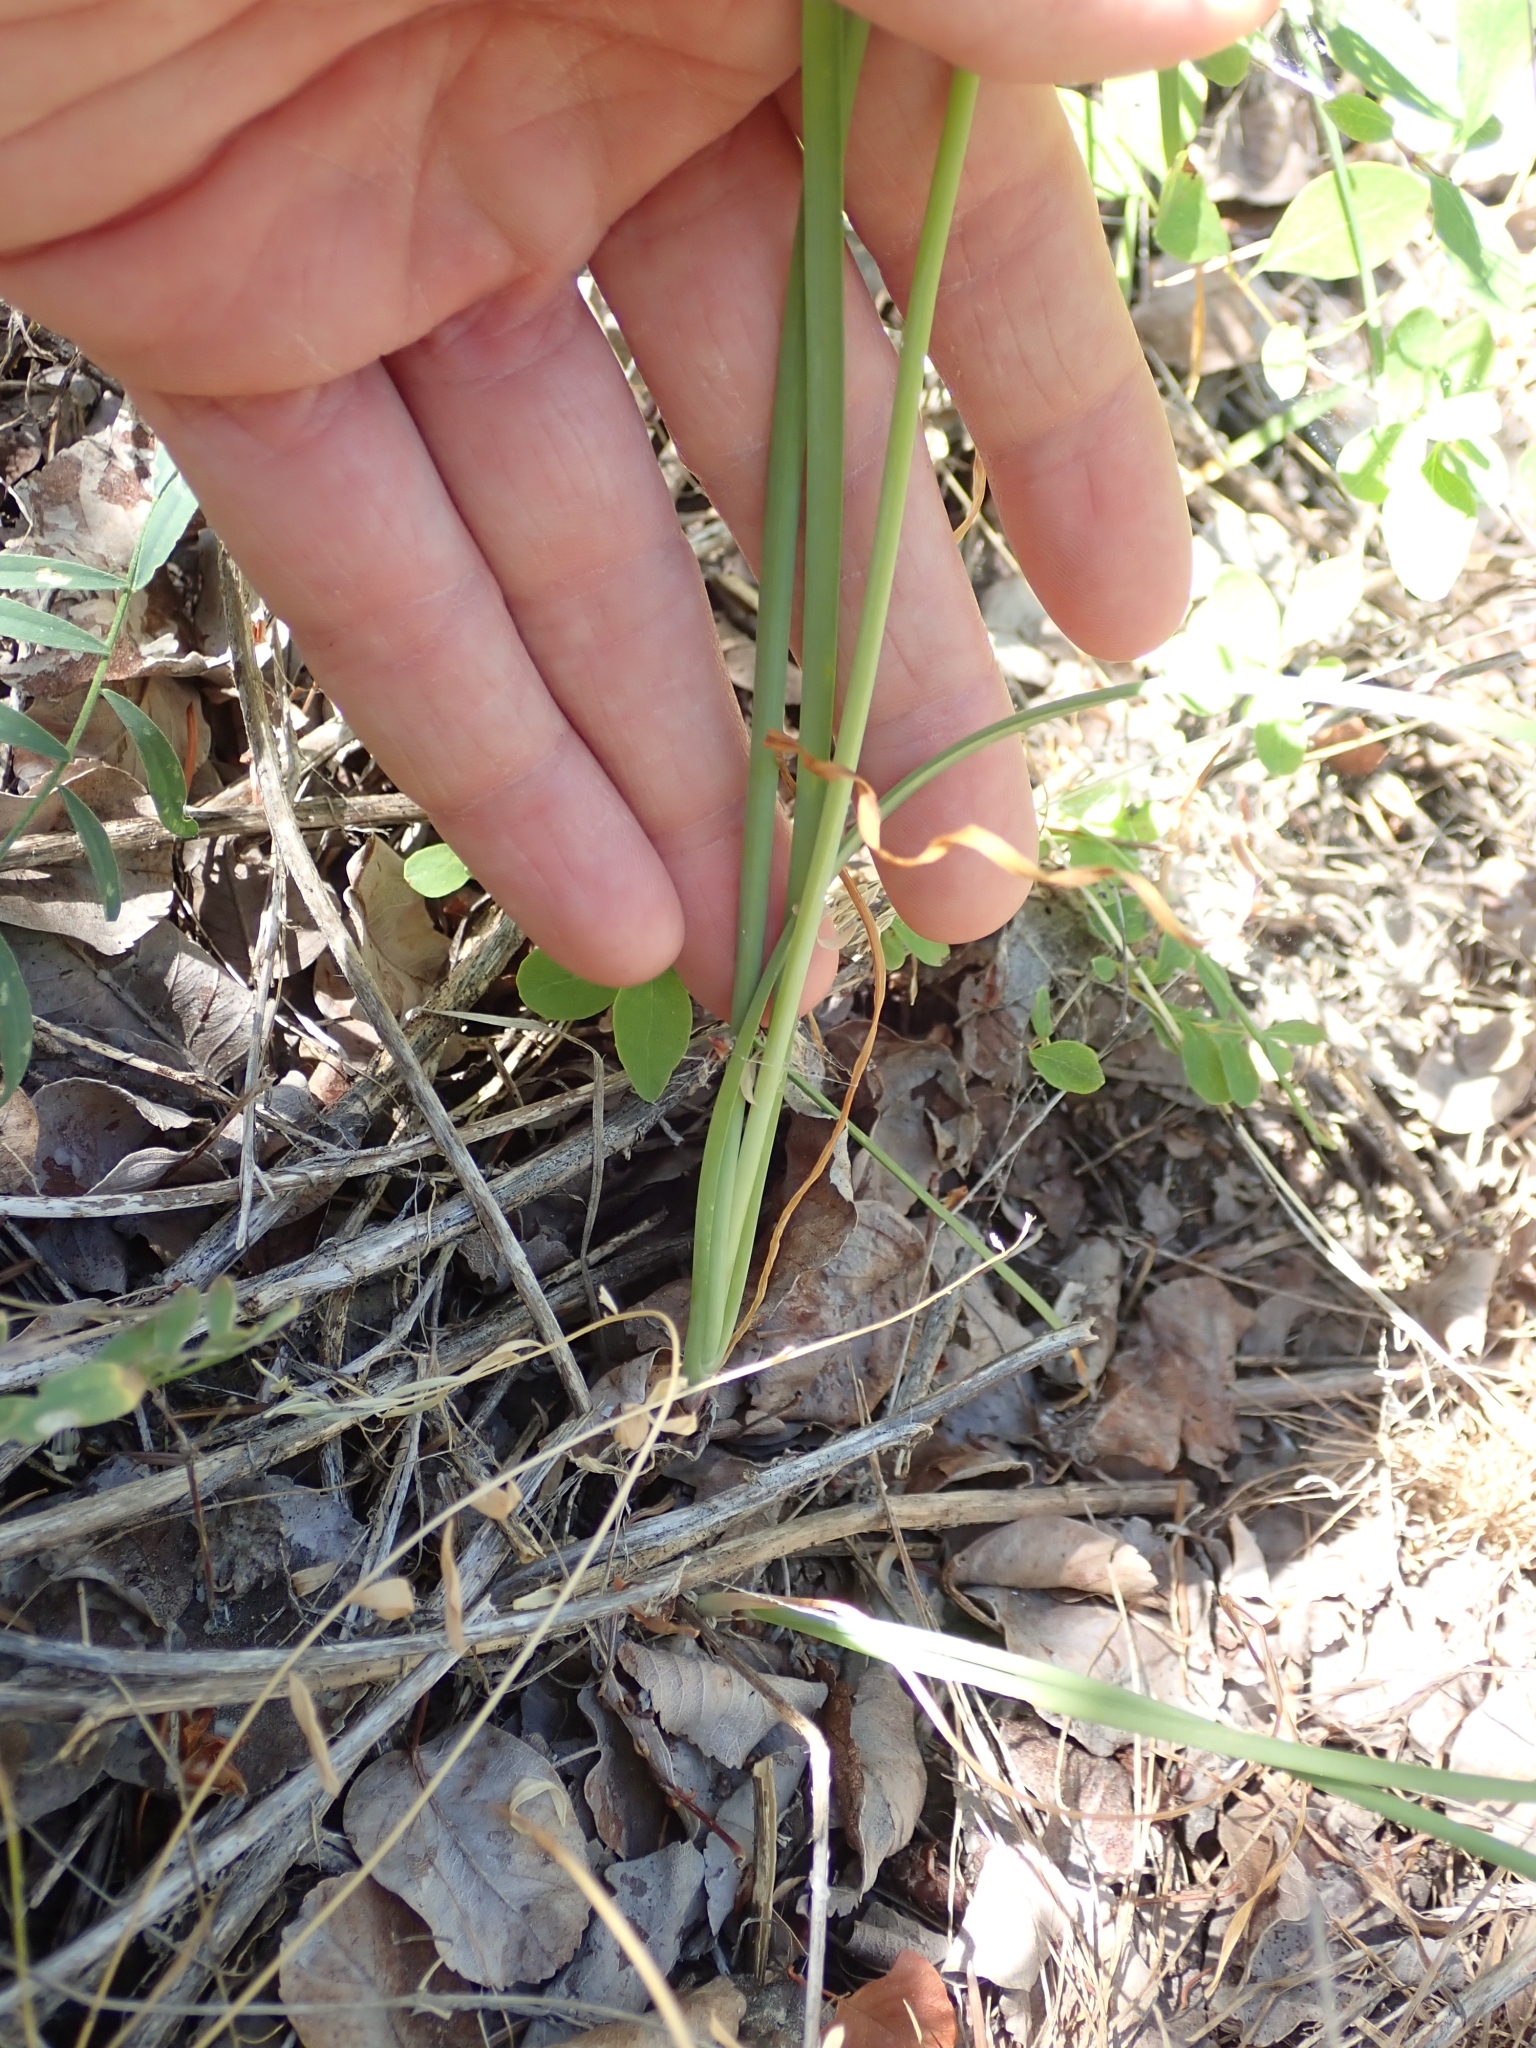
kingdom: Plantae
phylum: Tracheophyta
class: Liliopsida
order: Asparagales
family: Amaryllidaceae
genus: Allium
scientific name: Allium cernuum
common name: Nodding onion
